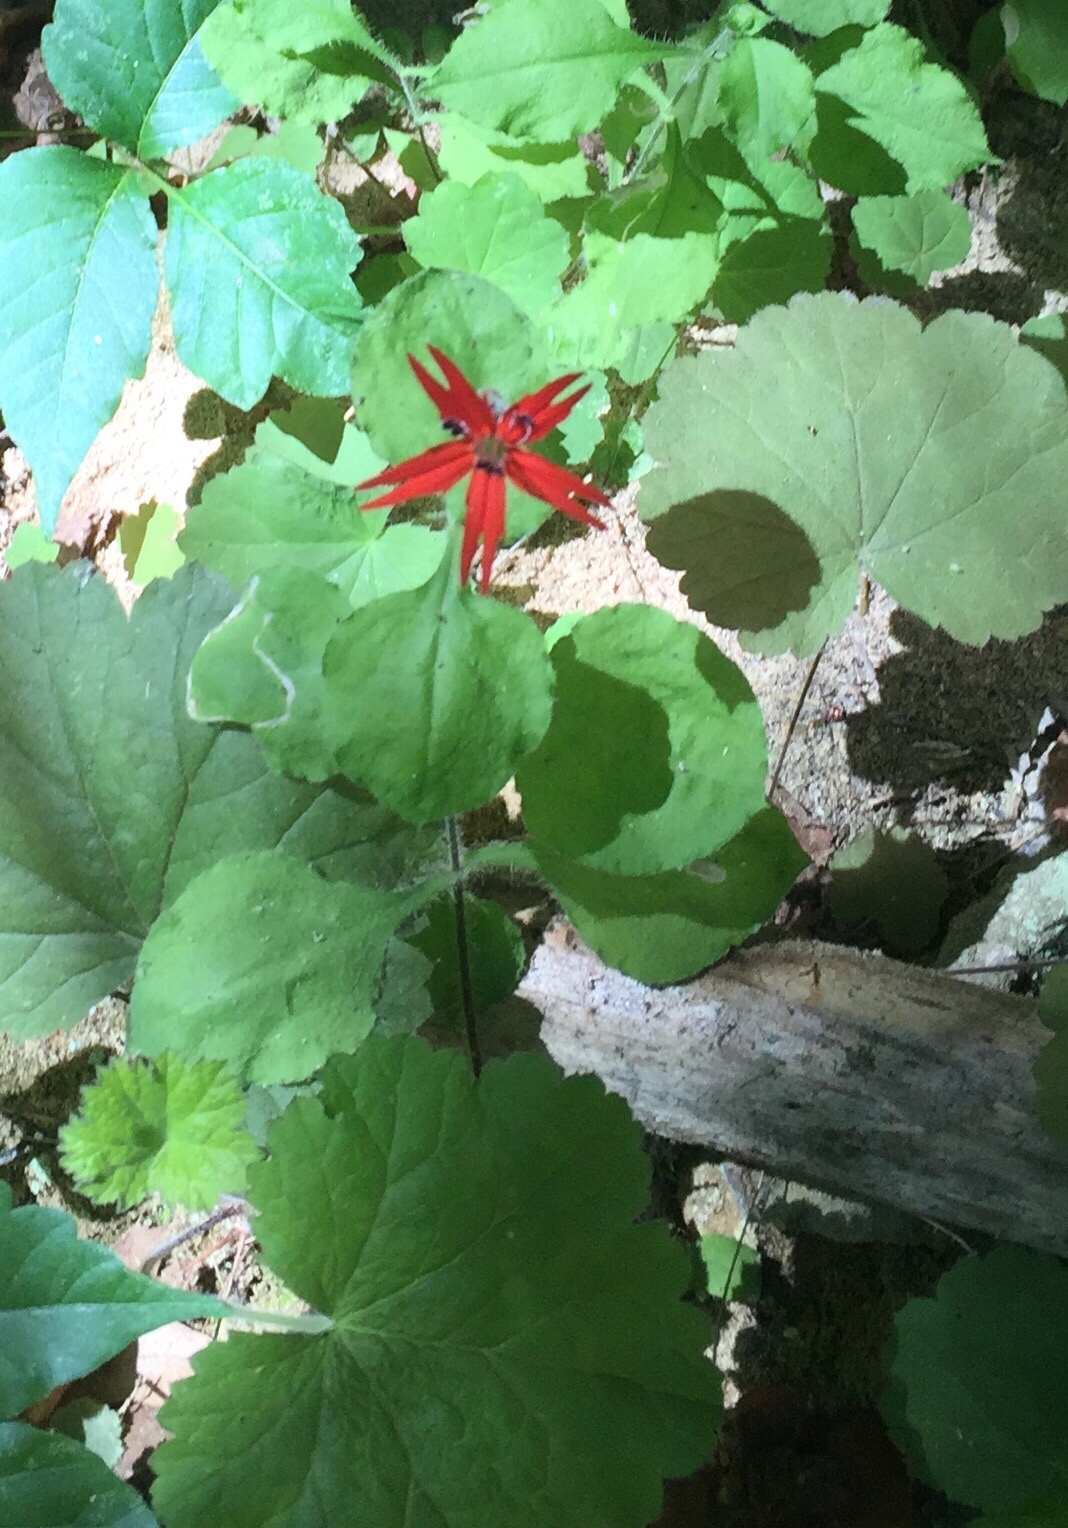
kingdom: Plantae
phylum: Tracheophyta
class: Magnoliopsida
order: Caryophyllales
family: Caryophyllaceae
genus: Silene
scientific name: Silene rotundifolia
